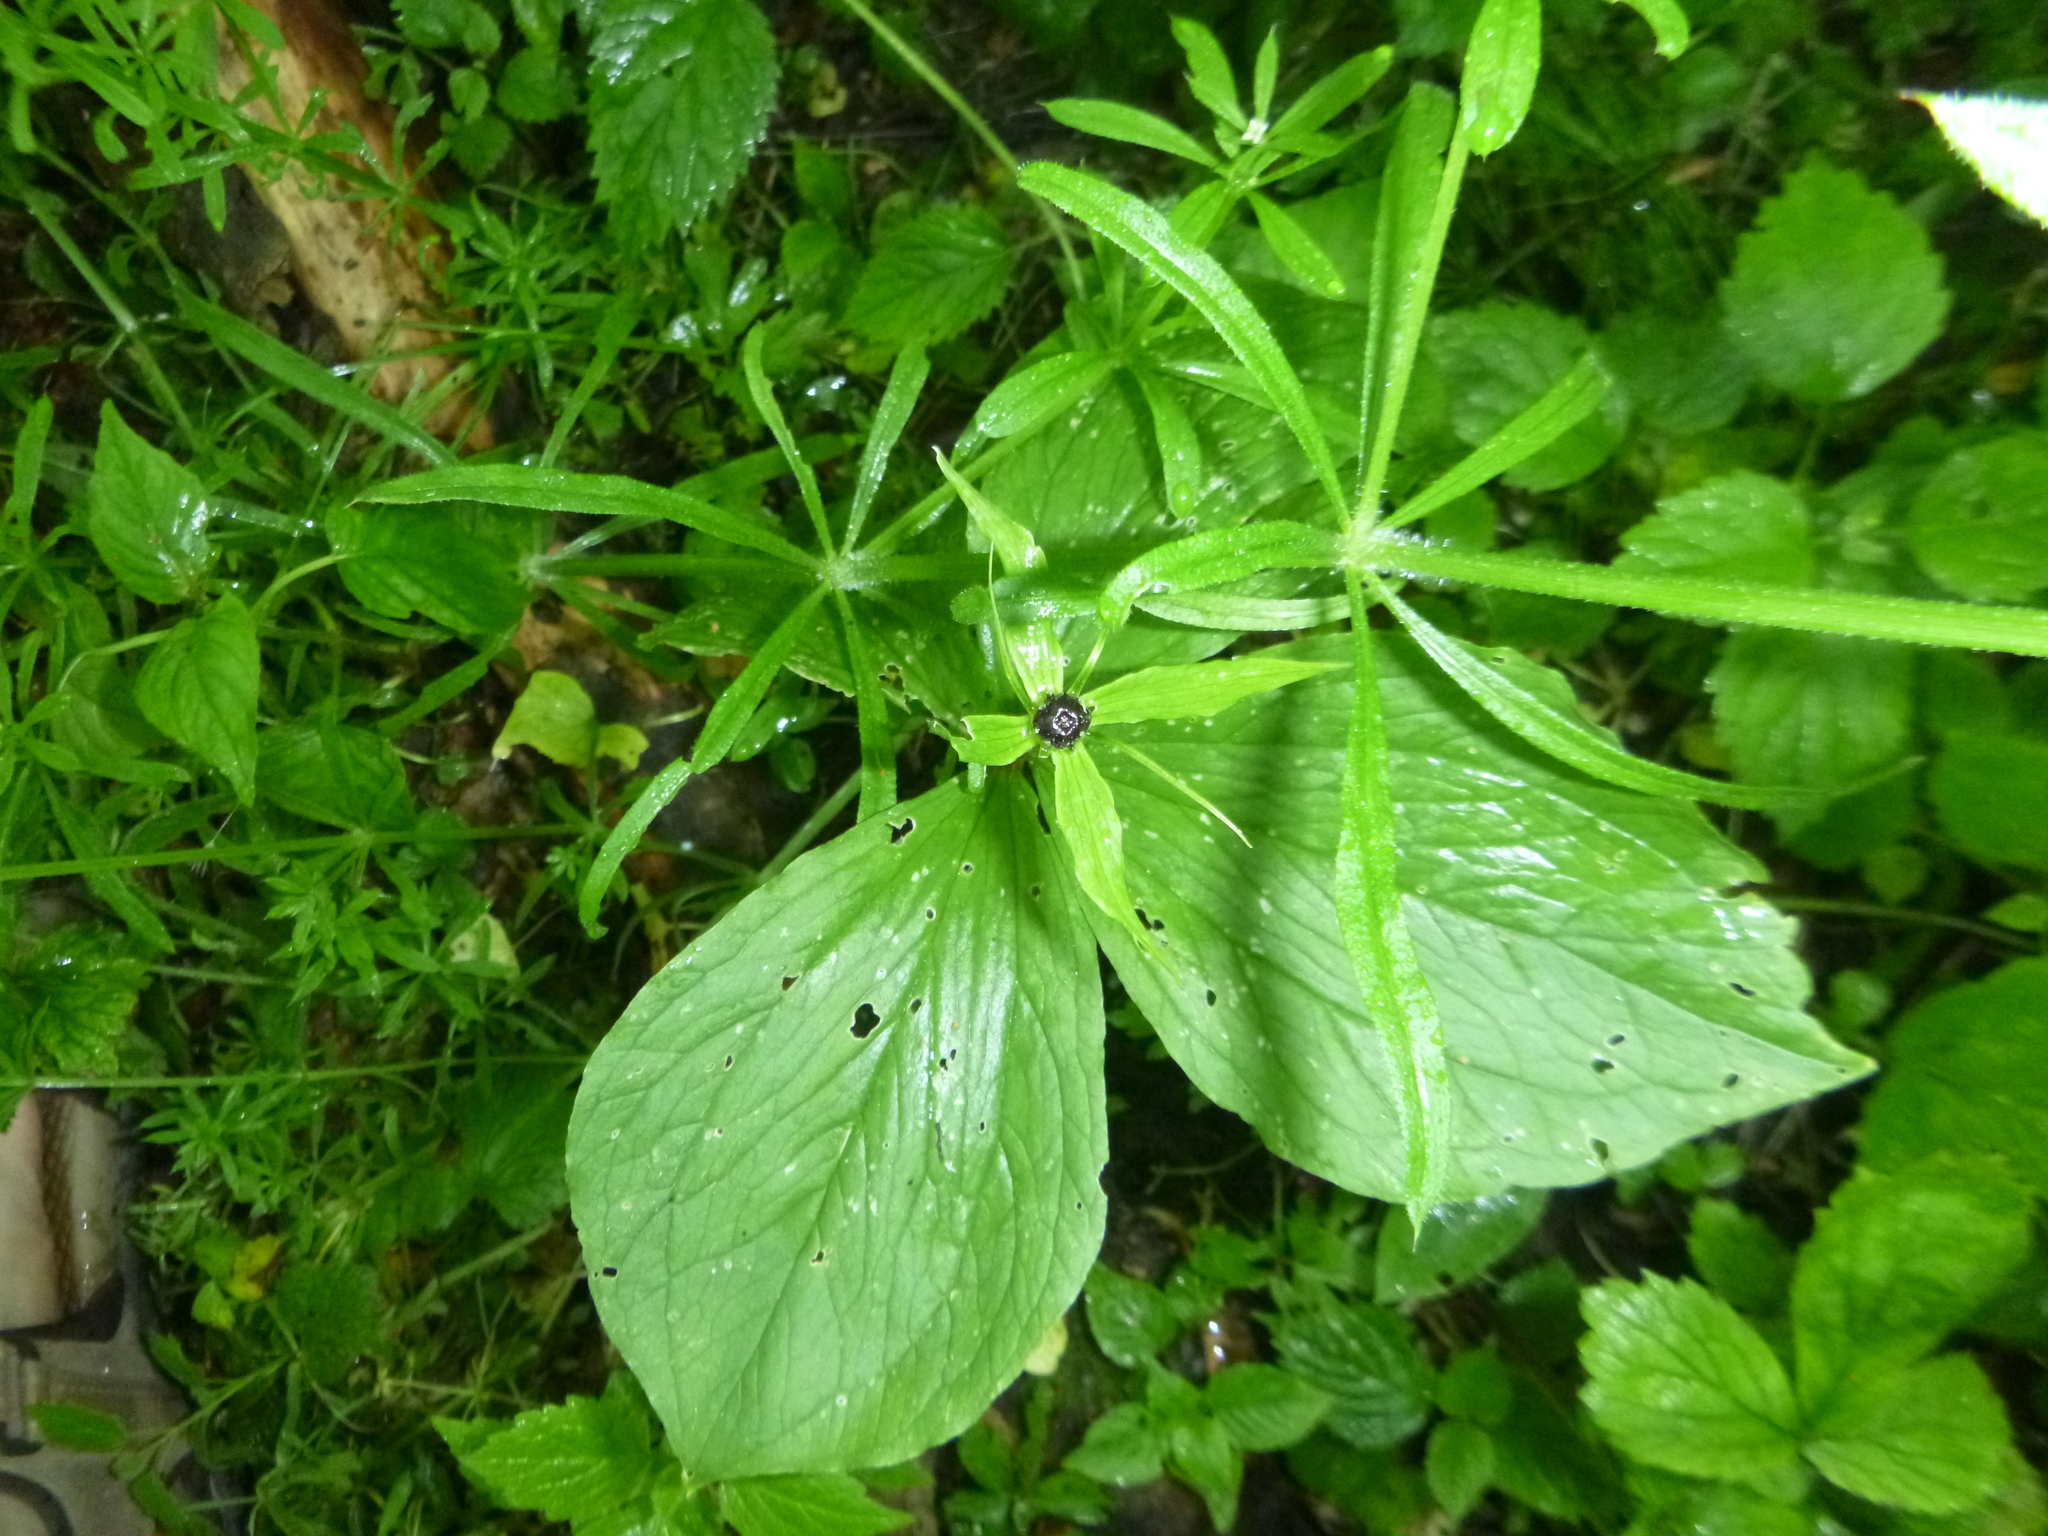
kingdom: Plantae
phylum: Tracheophyta
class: Liliopsida
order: Liliales
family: Melanthiaceae
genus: Paris
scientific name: Paris quadrifolia
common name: Herb-paris
